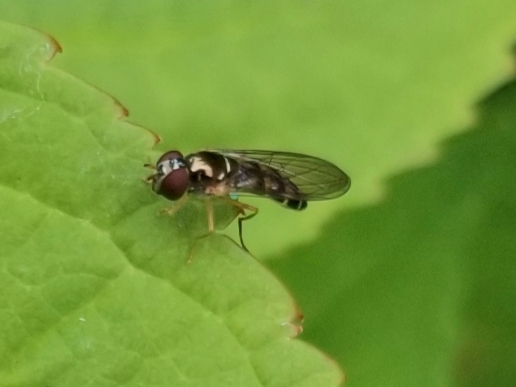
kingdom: Animalia
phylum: Arthropoda
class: Insecta
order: Diptera
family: Syrphidae
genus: Melanostoma
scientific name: Melanostoma mellina
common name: Hover fly
